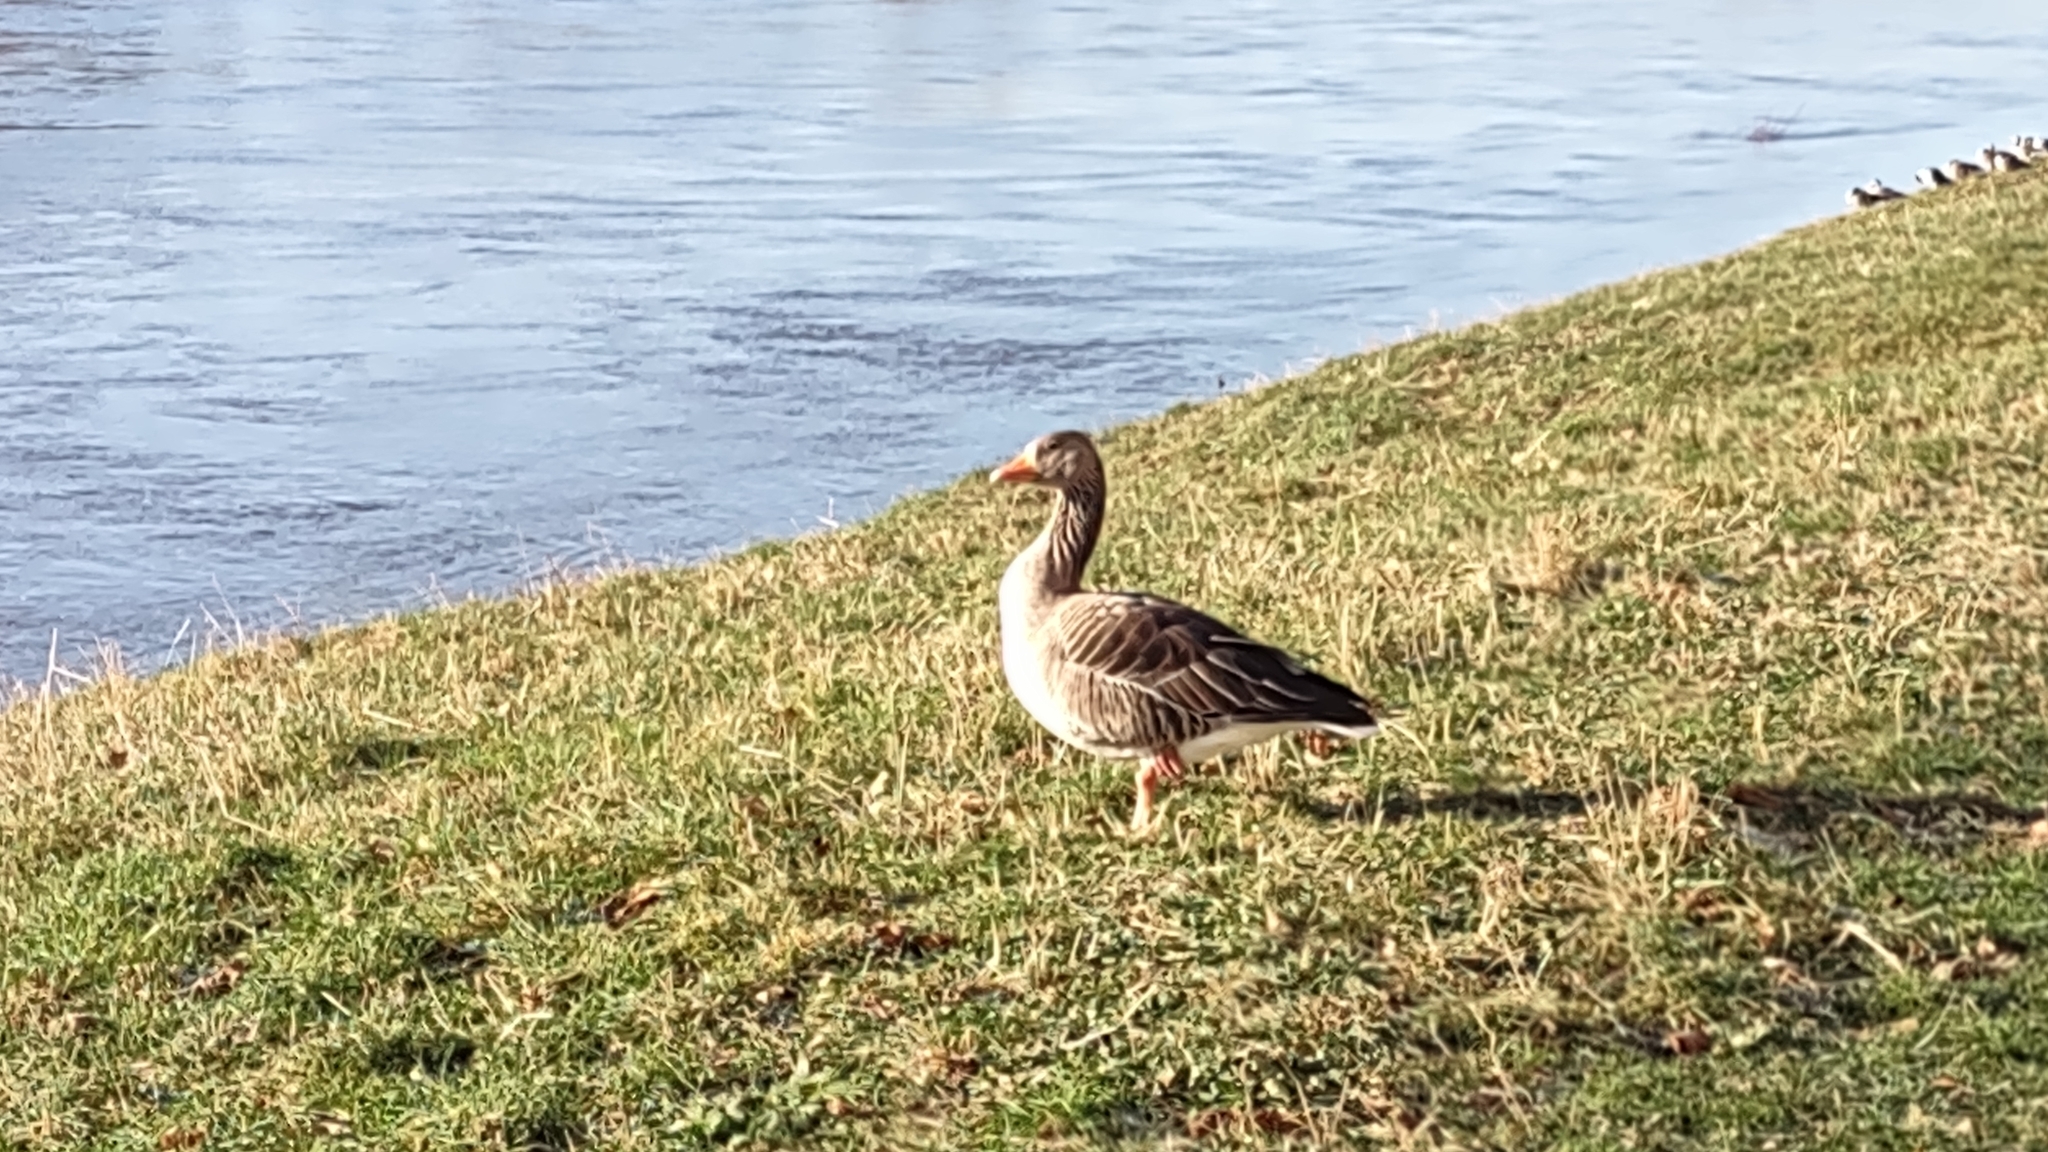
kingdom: Animalia
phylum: Chordata
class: Aves
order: Anseriformes
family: Anatidae
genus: Anser
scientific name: Anser anser
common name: Greylag goose
